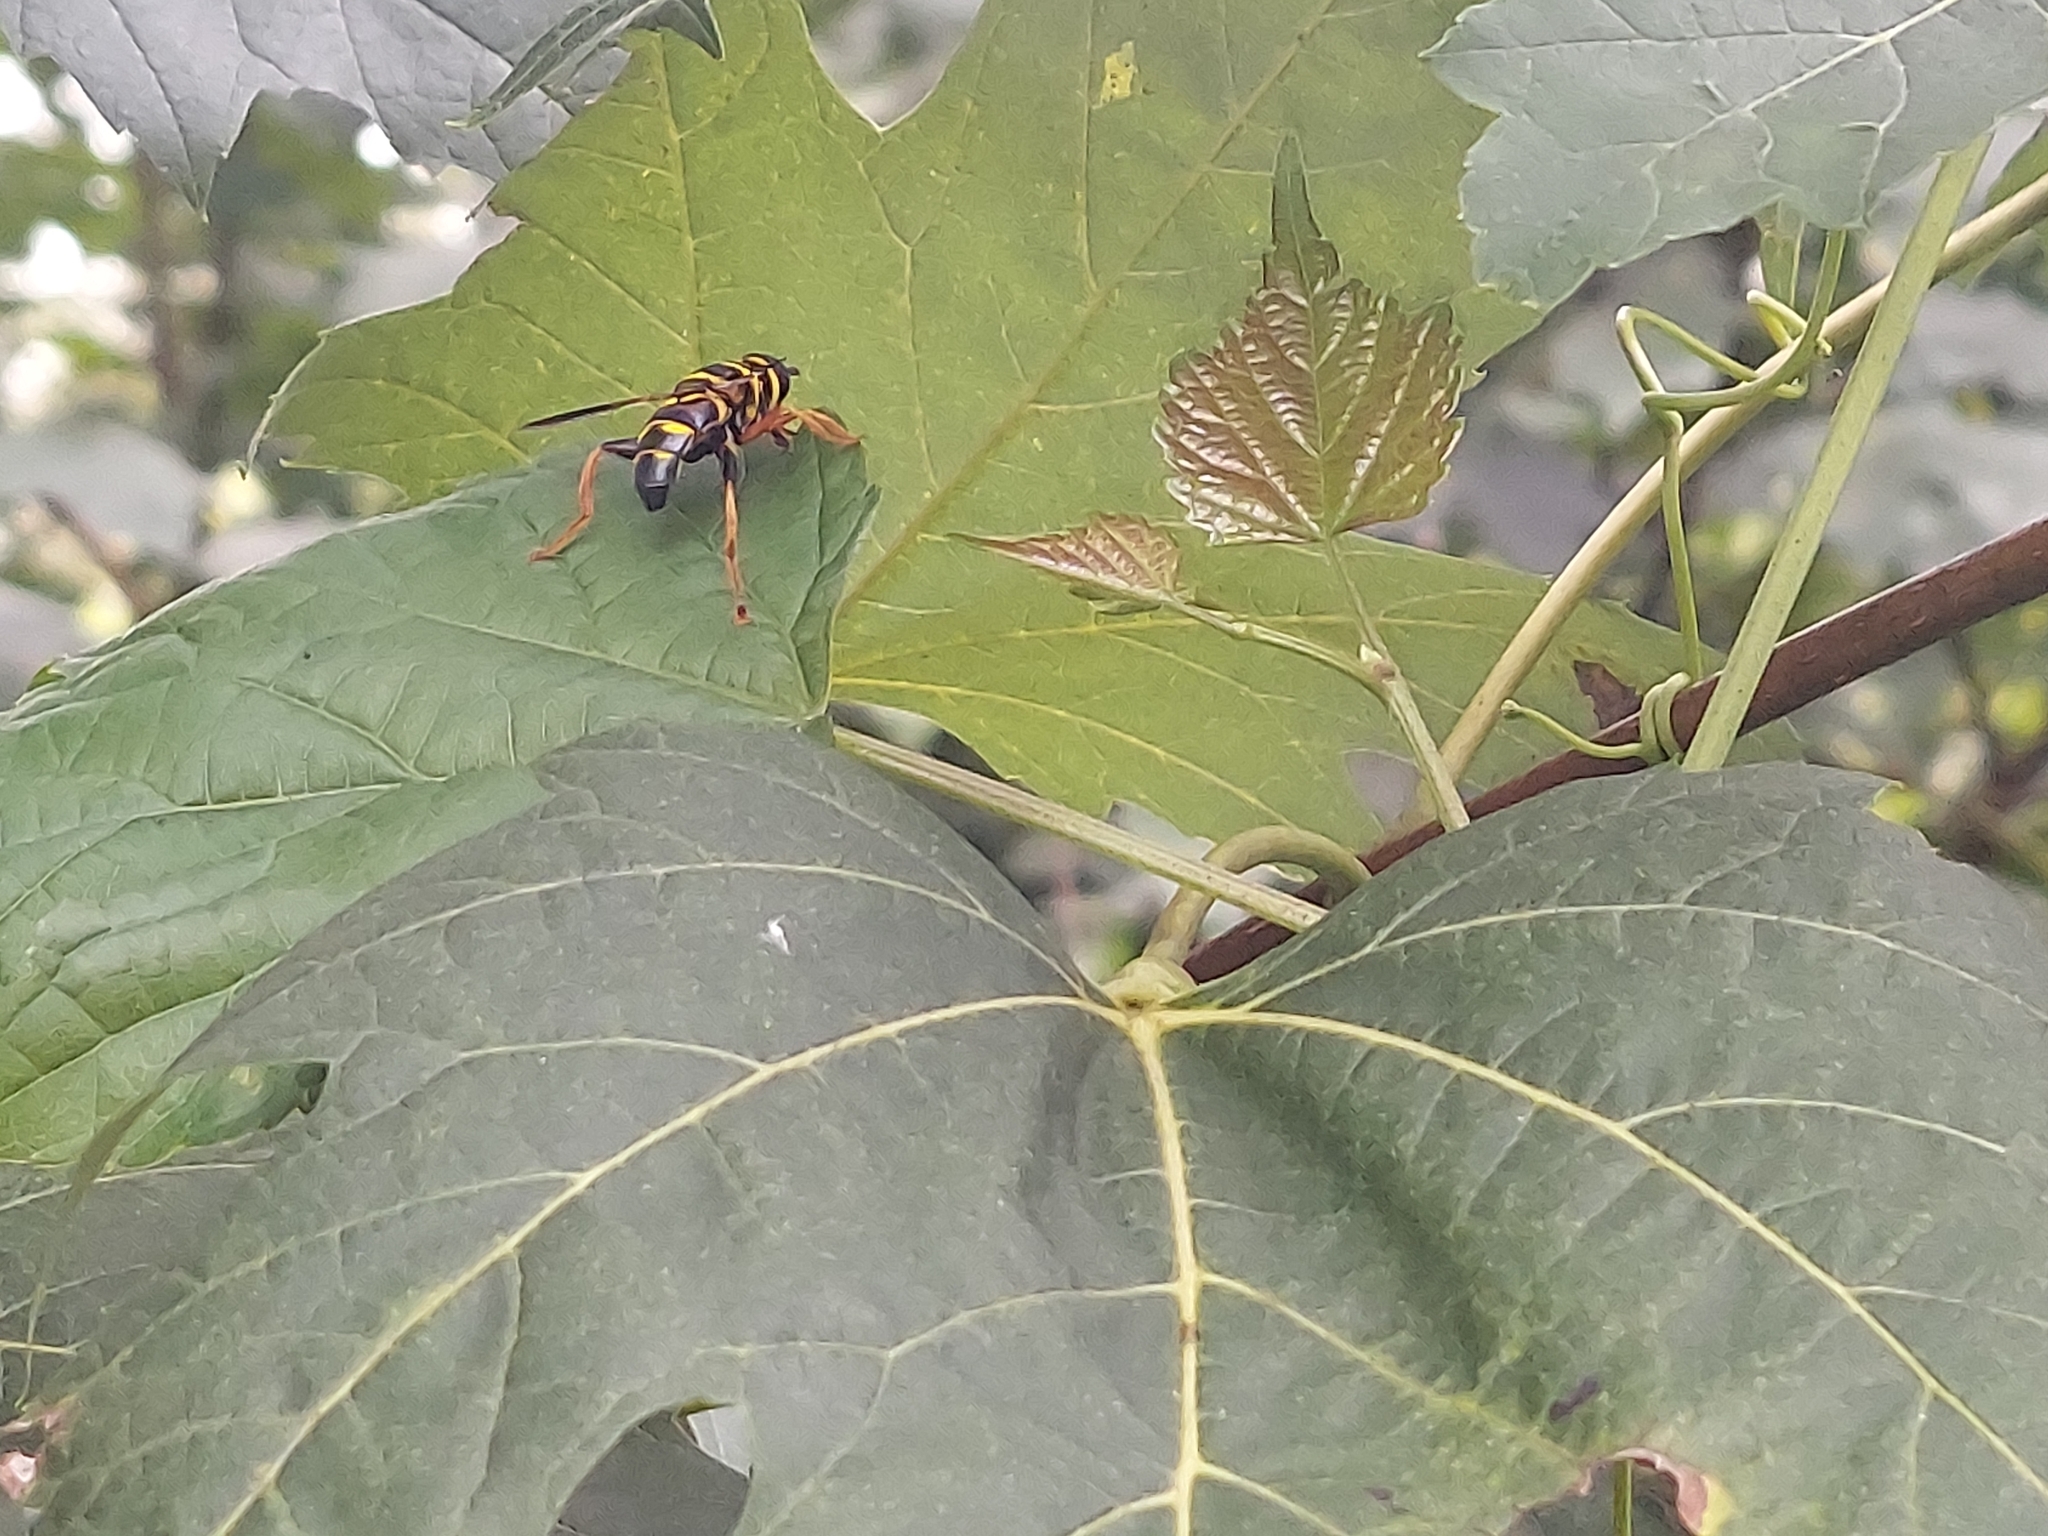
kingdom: Animalia
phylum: Arthropoda
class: Insecta
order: Diptera
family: Syrphidae
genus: Meromacrus
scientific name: Meromacrus acutus
